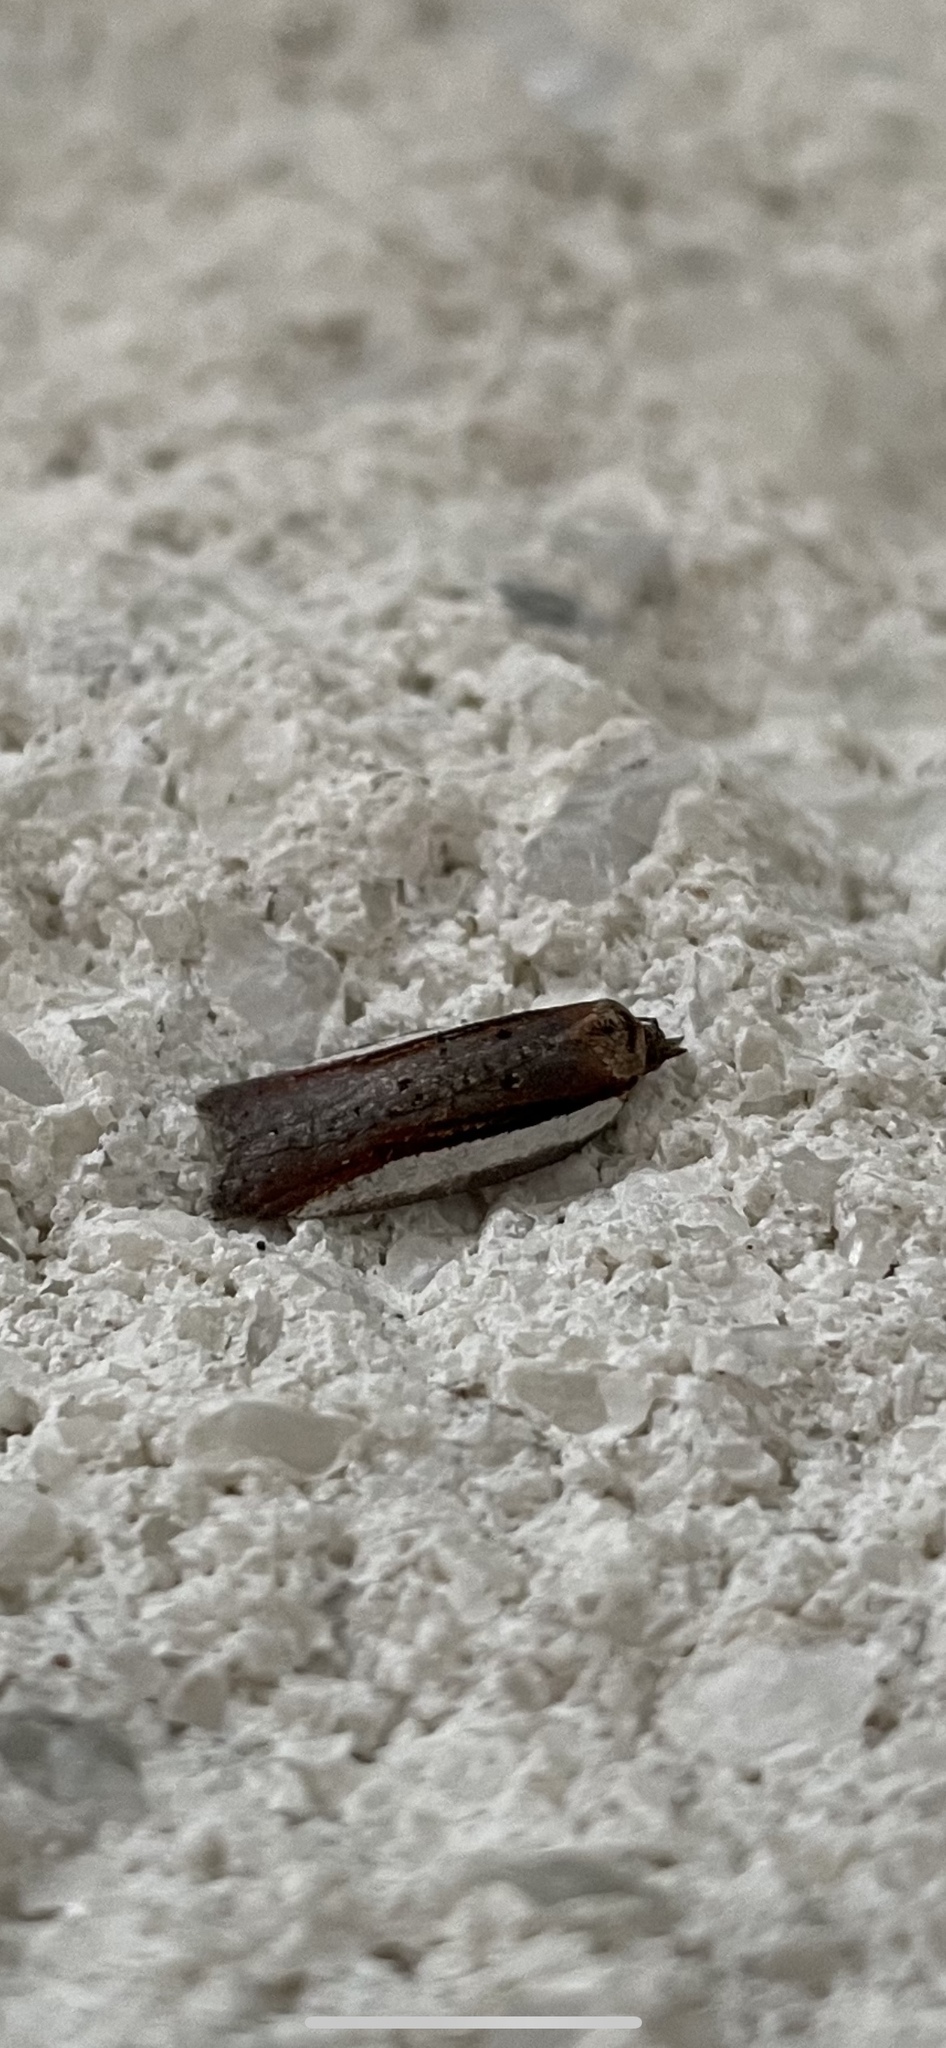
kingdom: Animalia
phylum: Arthropoda
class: Insecta
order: Lepidoptera
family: Tortricidae
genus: Acleris
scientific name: Acleris celiana
